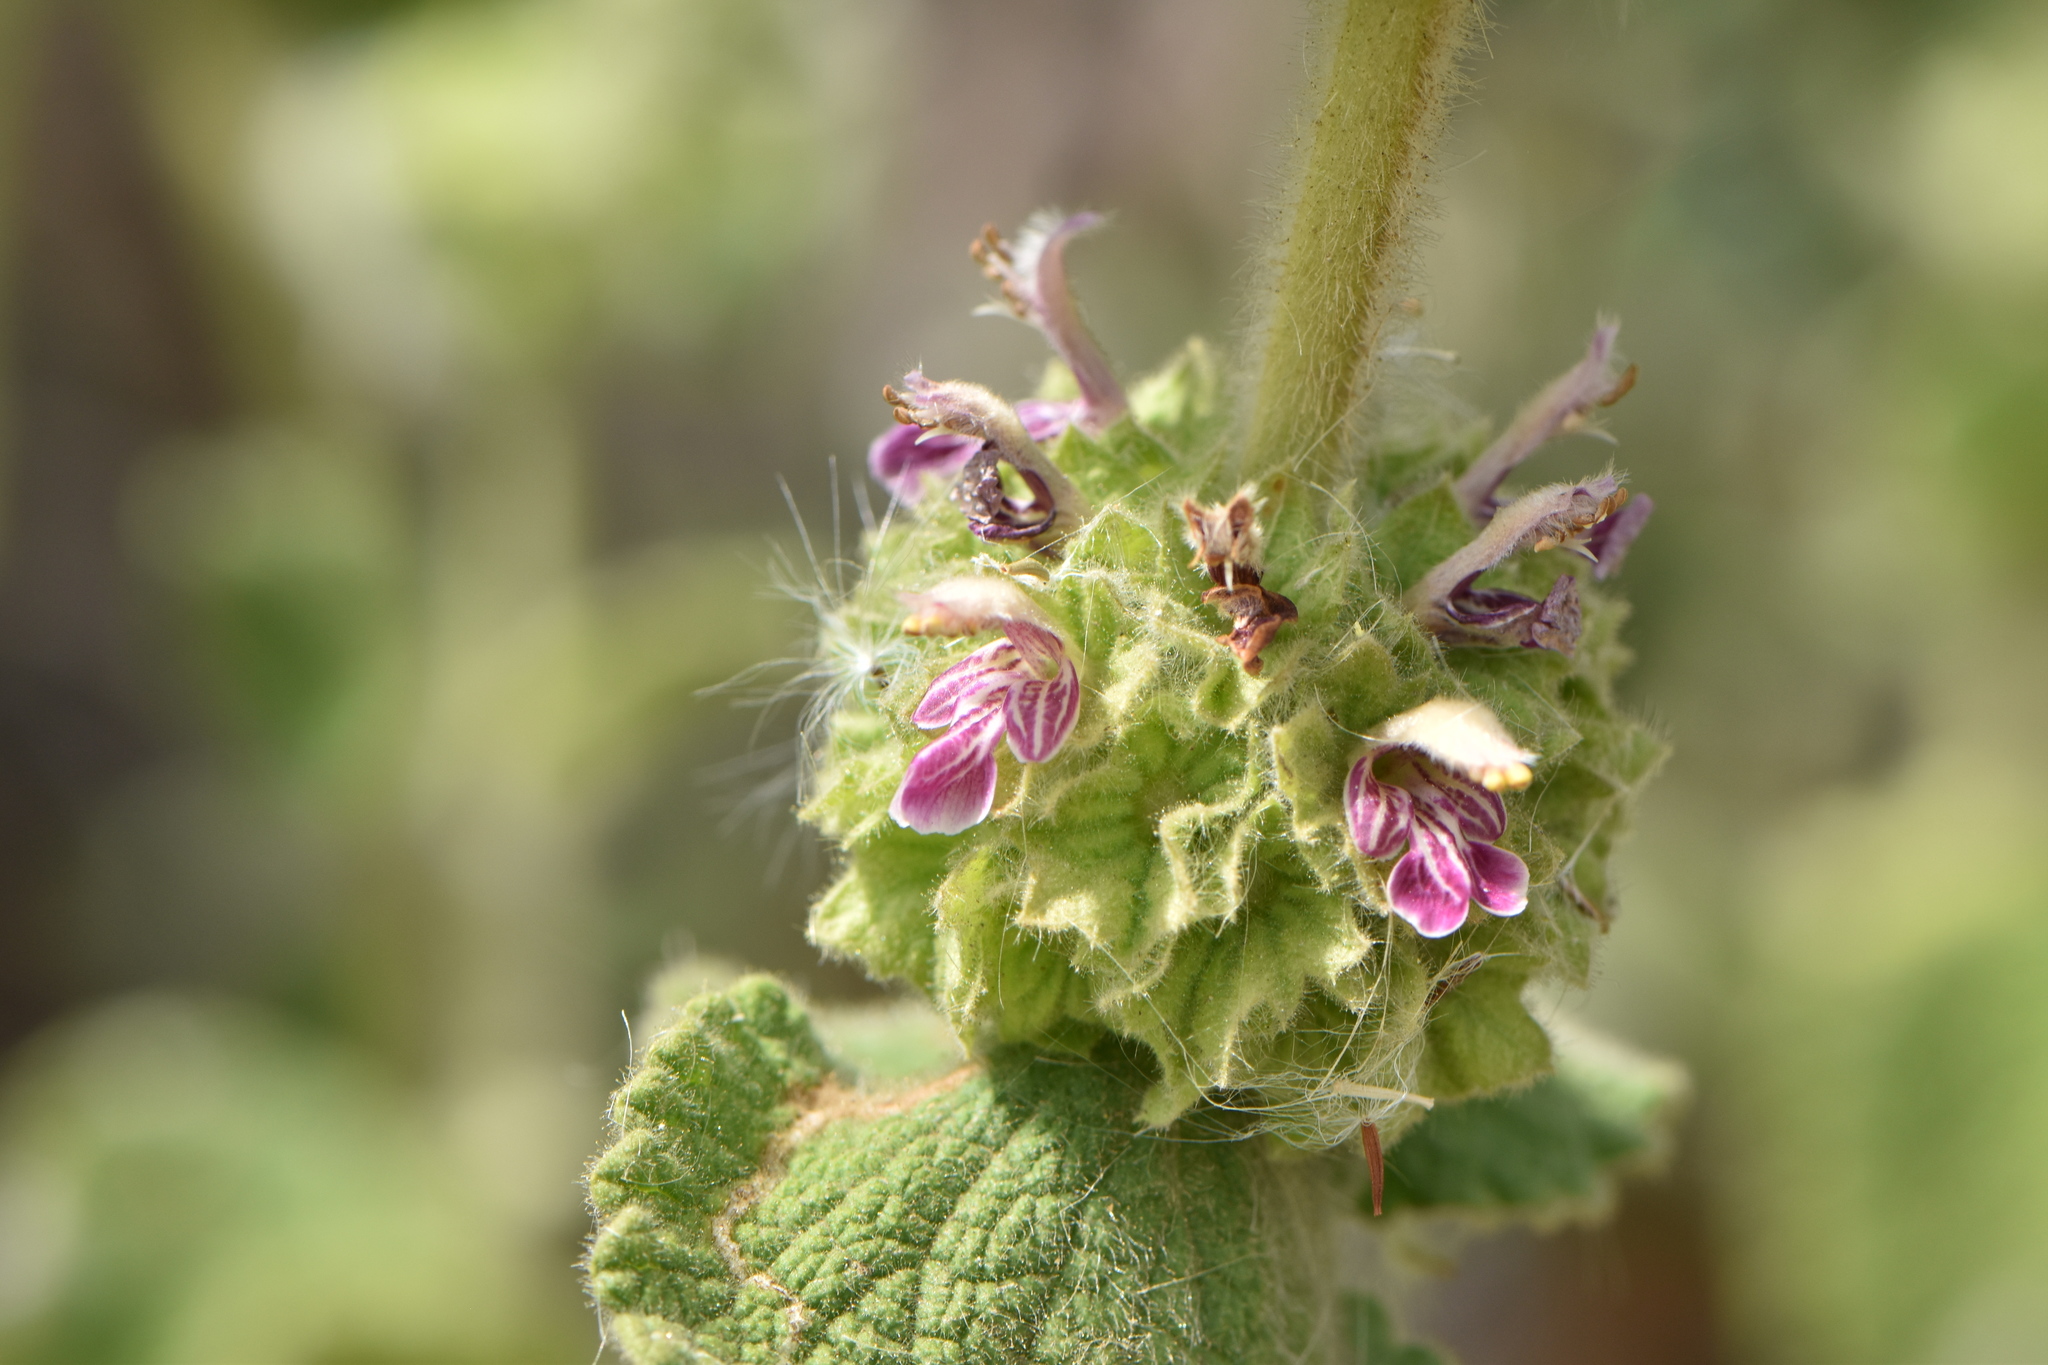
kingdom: Plantae
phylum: Tracheophyta
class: Magnoliopsida
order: Lamiales
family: Lamiaceae
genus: Pseudodictamnus
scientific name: Pseudodictamnus hirsutus
